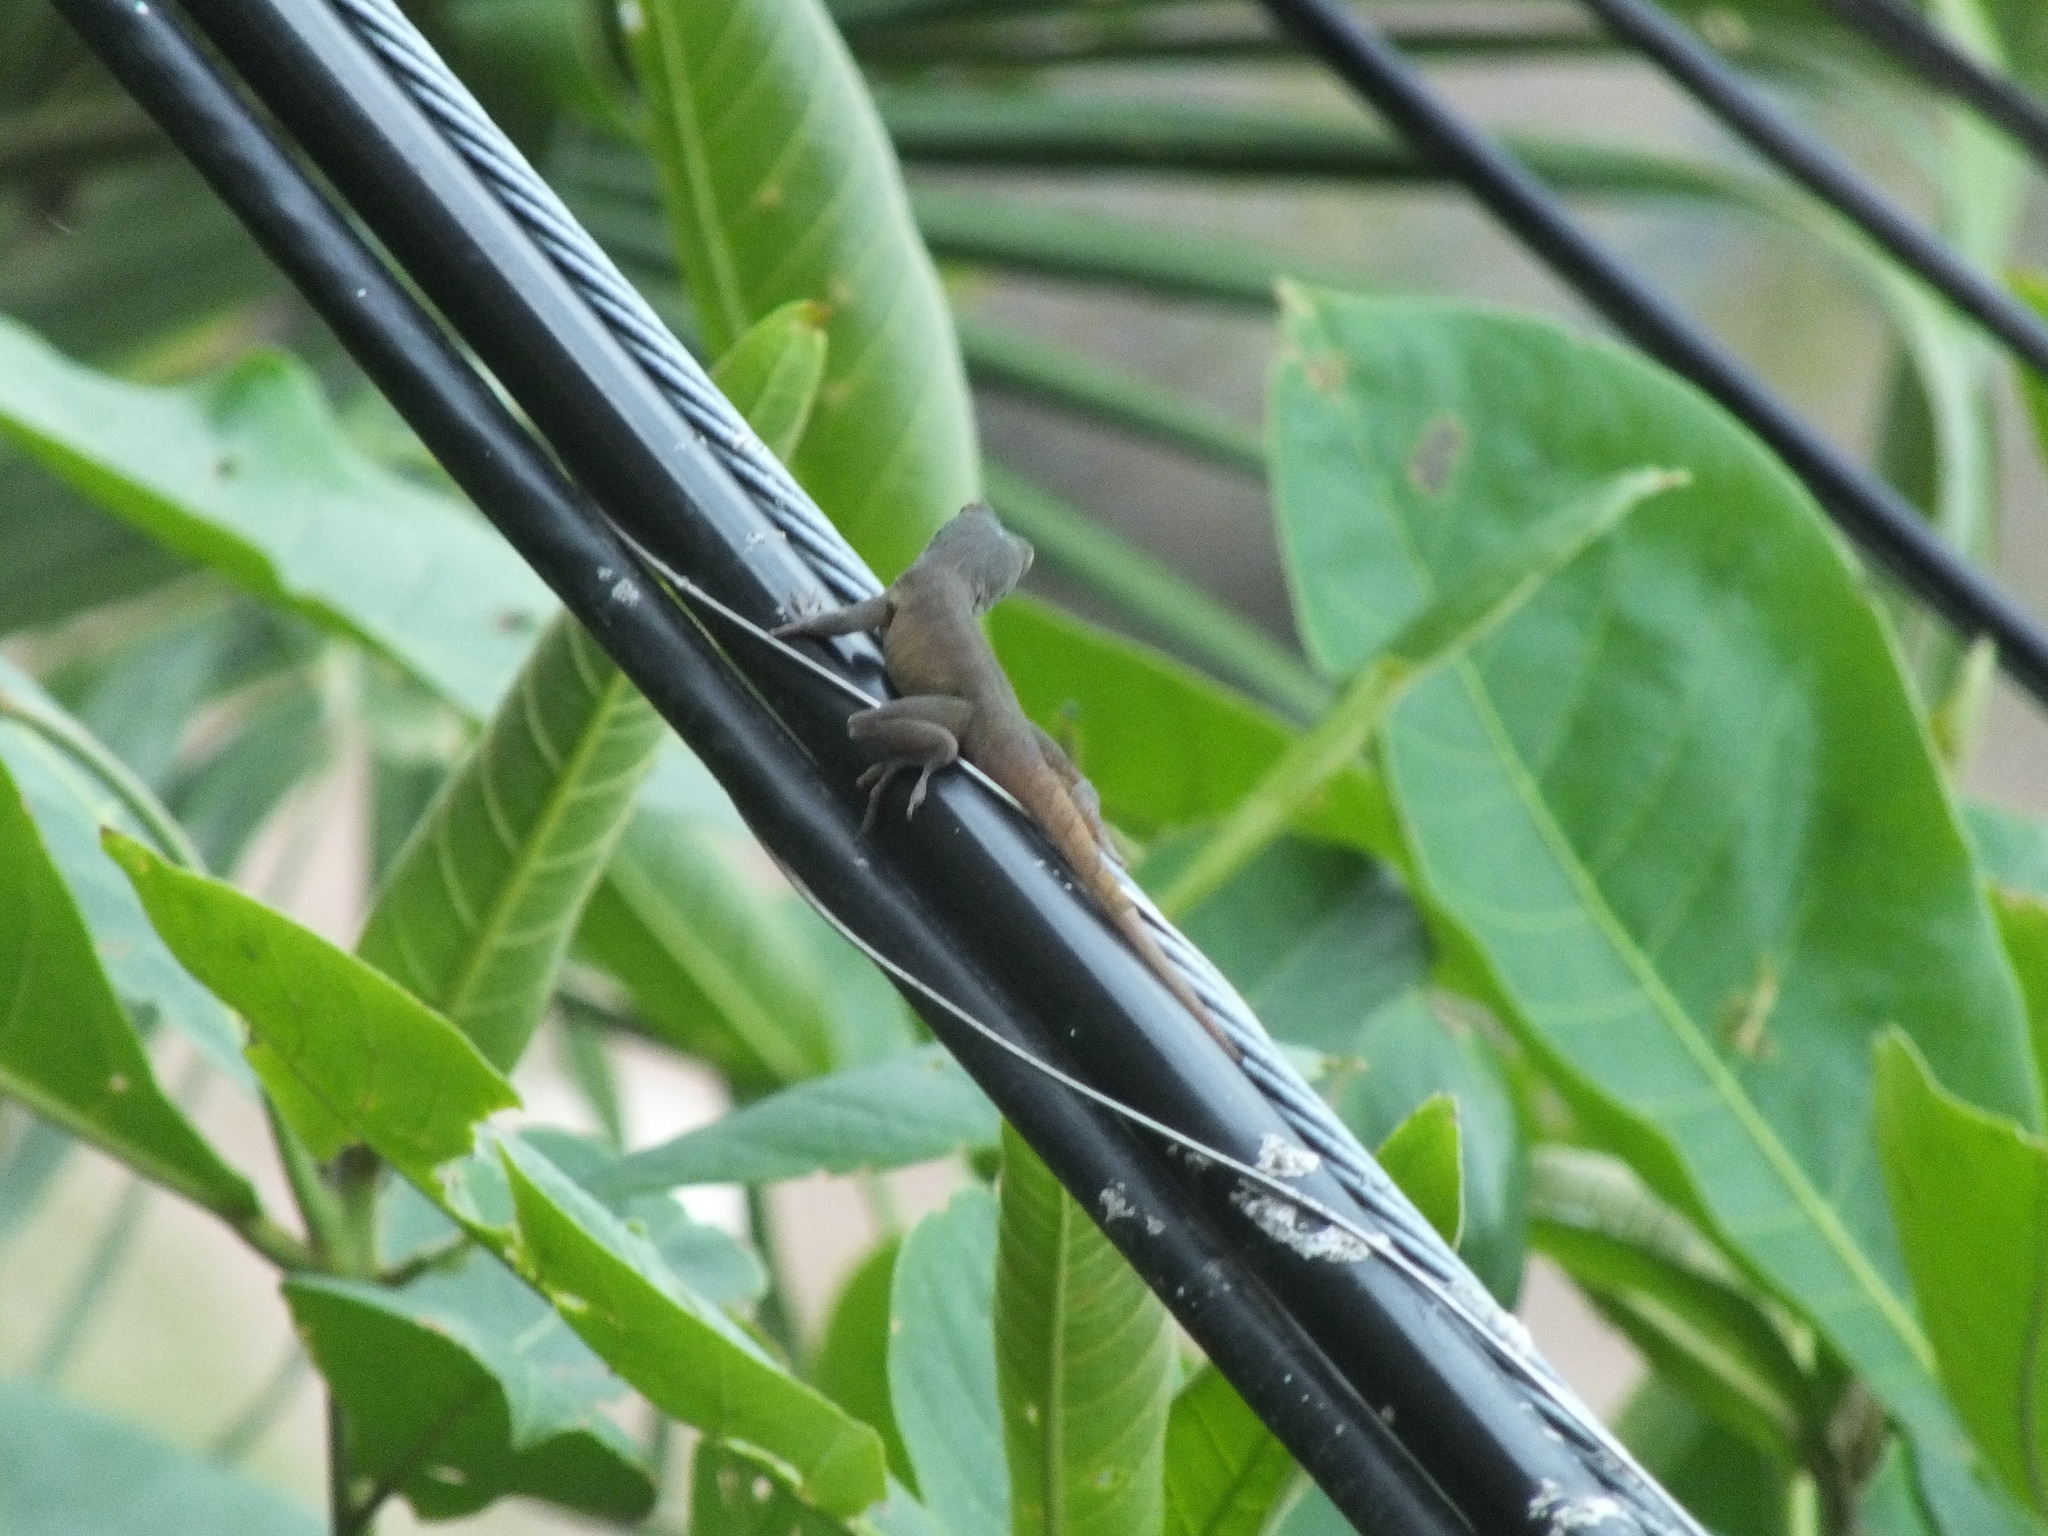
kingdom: Animalia
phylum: Chordata
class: Squamata
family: Dactyloidae
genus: Anolis
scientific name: Anolis grahami
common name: Graham's anole
